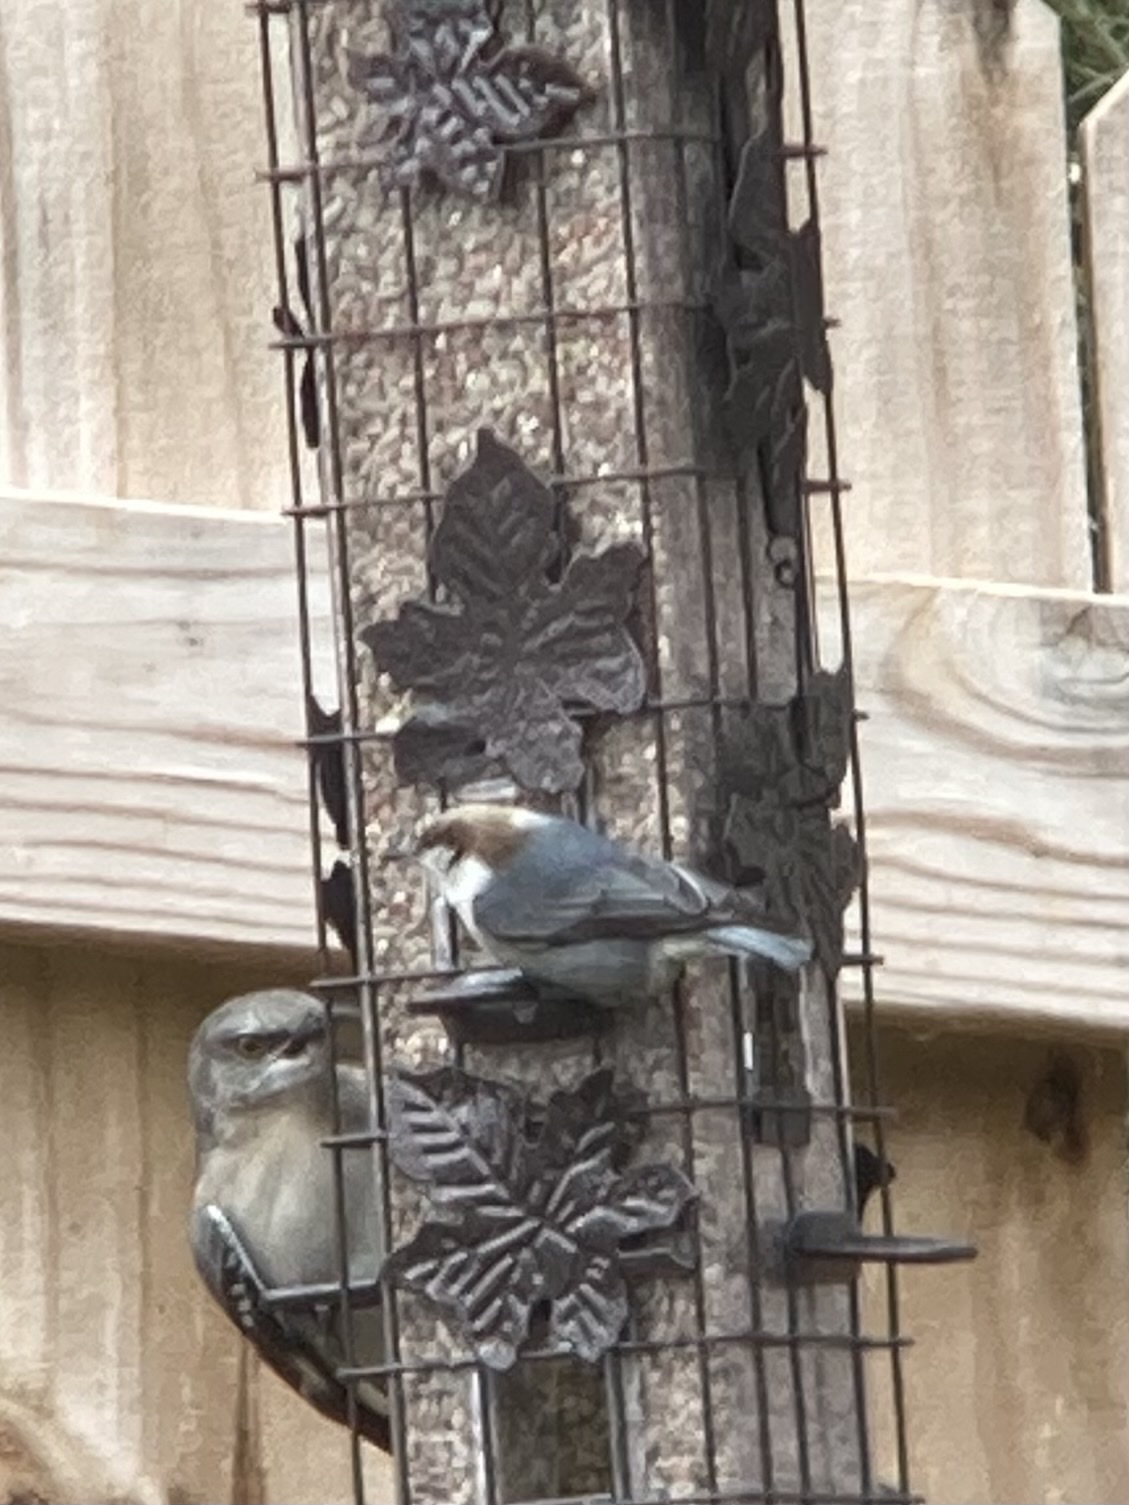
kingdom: Animalia
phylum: Chordata
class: Aves
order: Passeriformes
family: Sittidae
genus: Sitta
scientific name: Sitta pusilla
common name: Brown-headed nuthatch
